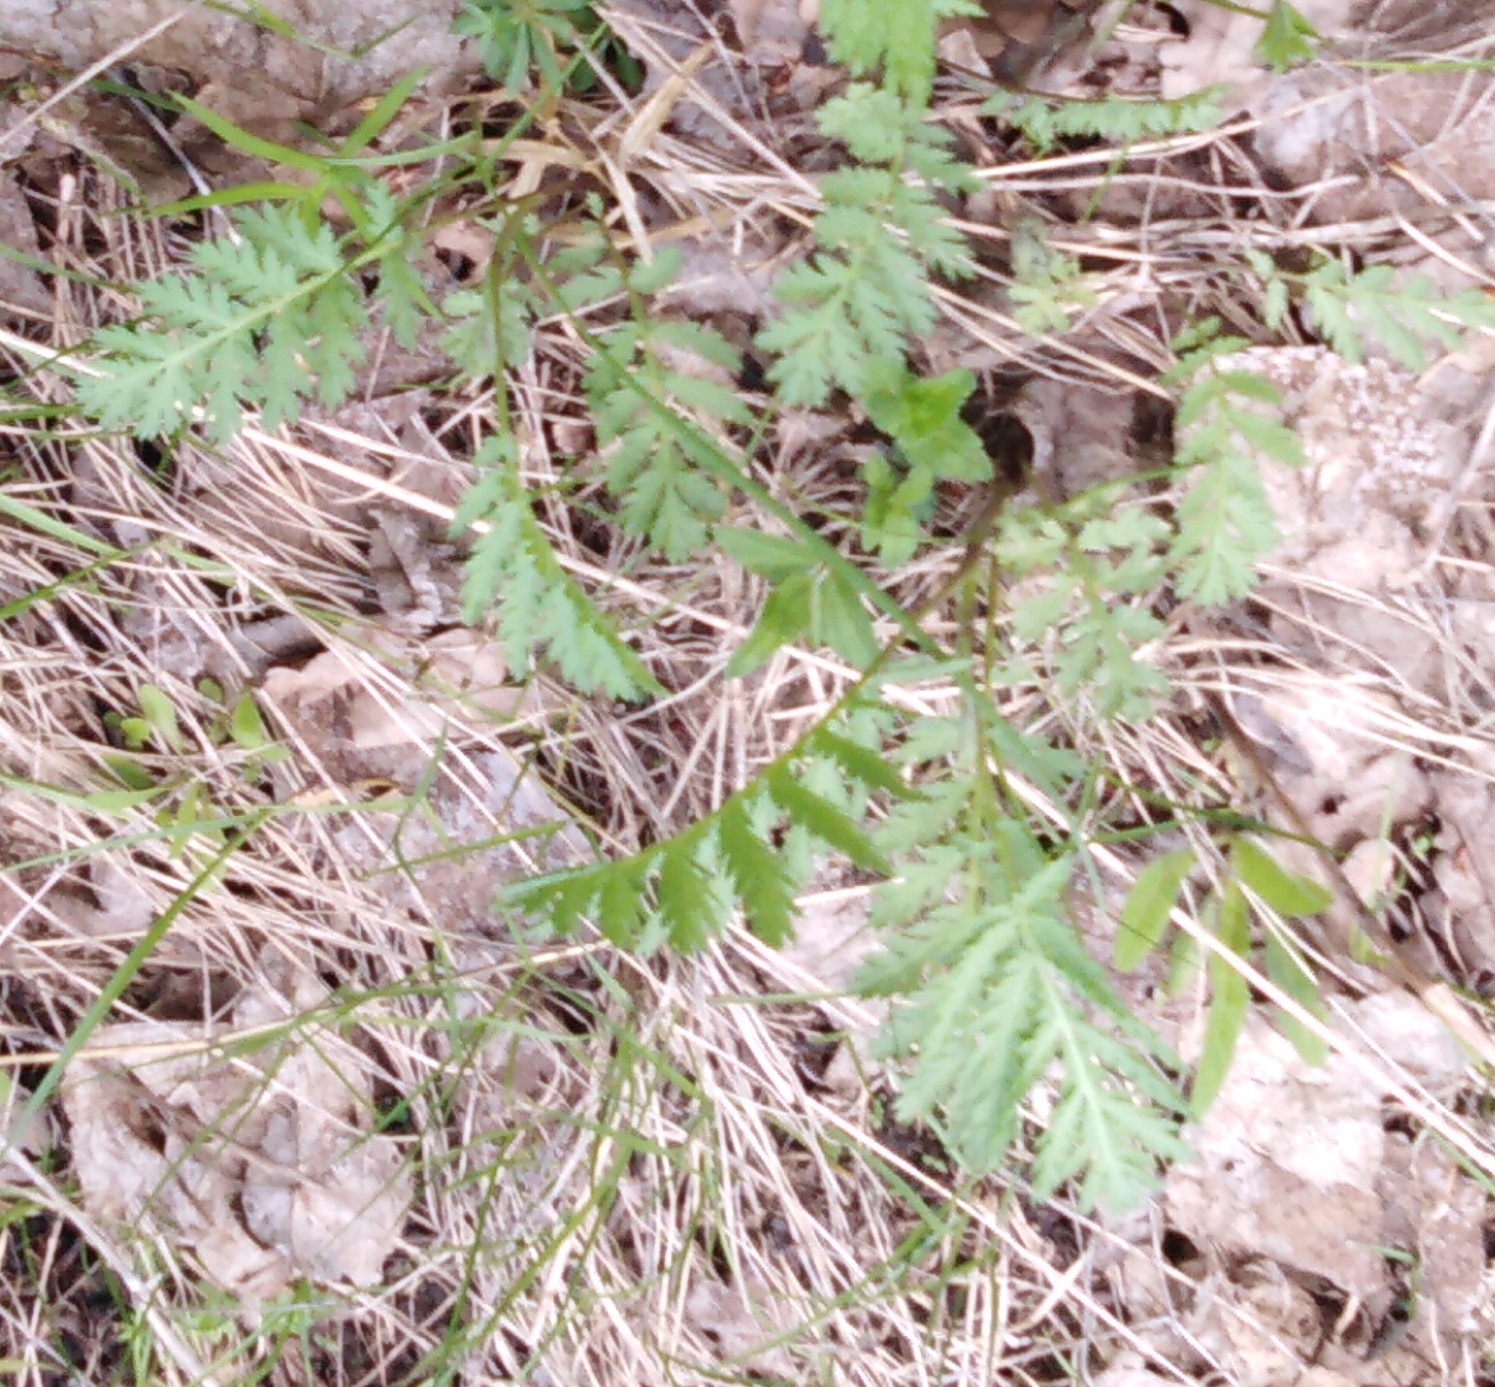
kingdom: Plantae
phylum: Tracheophyta
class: Magnoliopsida
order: Asterales
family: Asteraceae
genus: Tanacetum
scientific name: Tanacetum vulgare
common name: Common tansy
